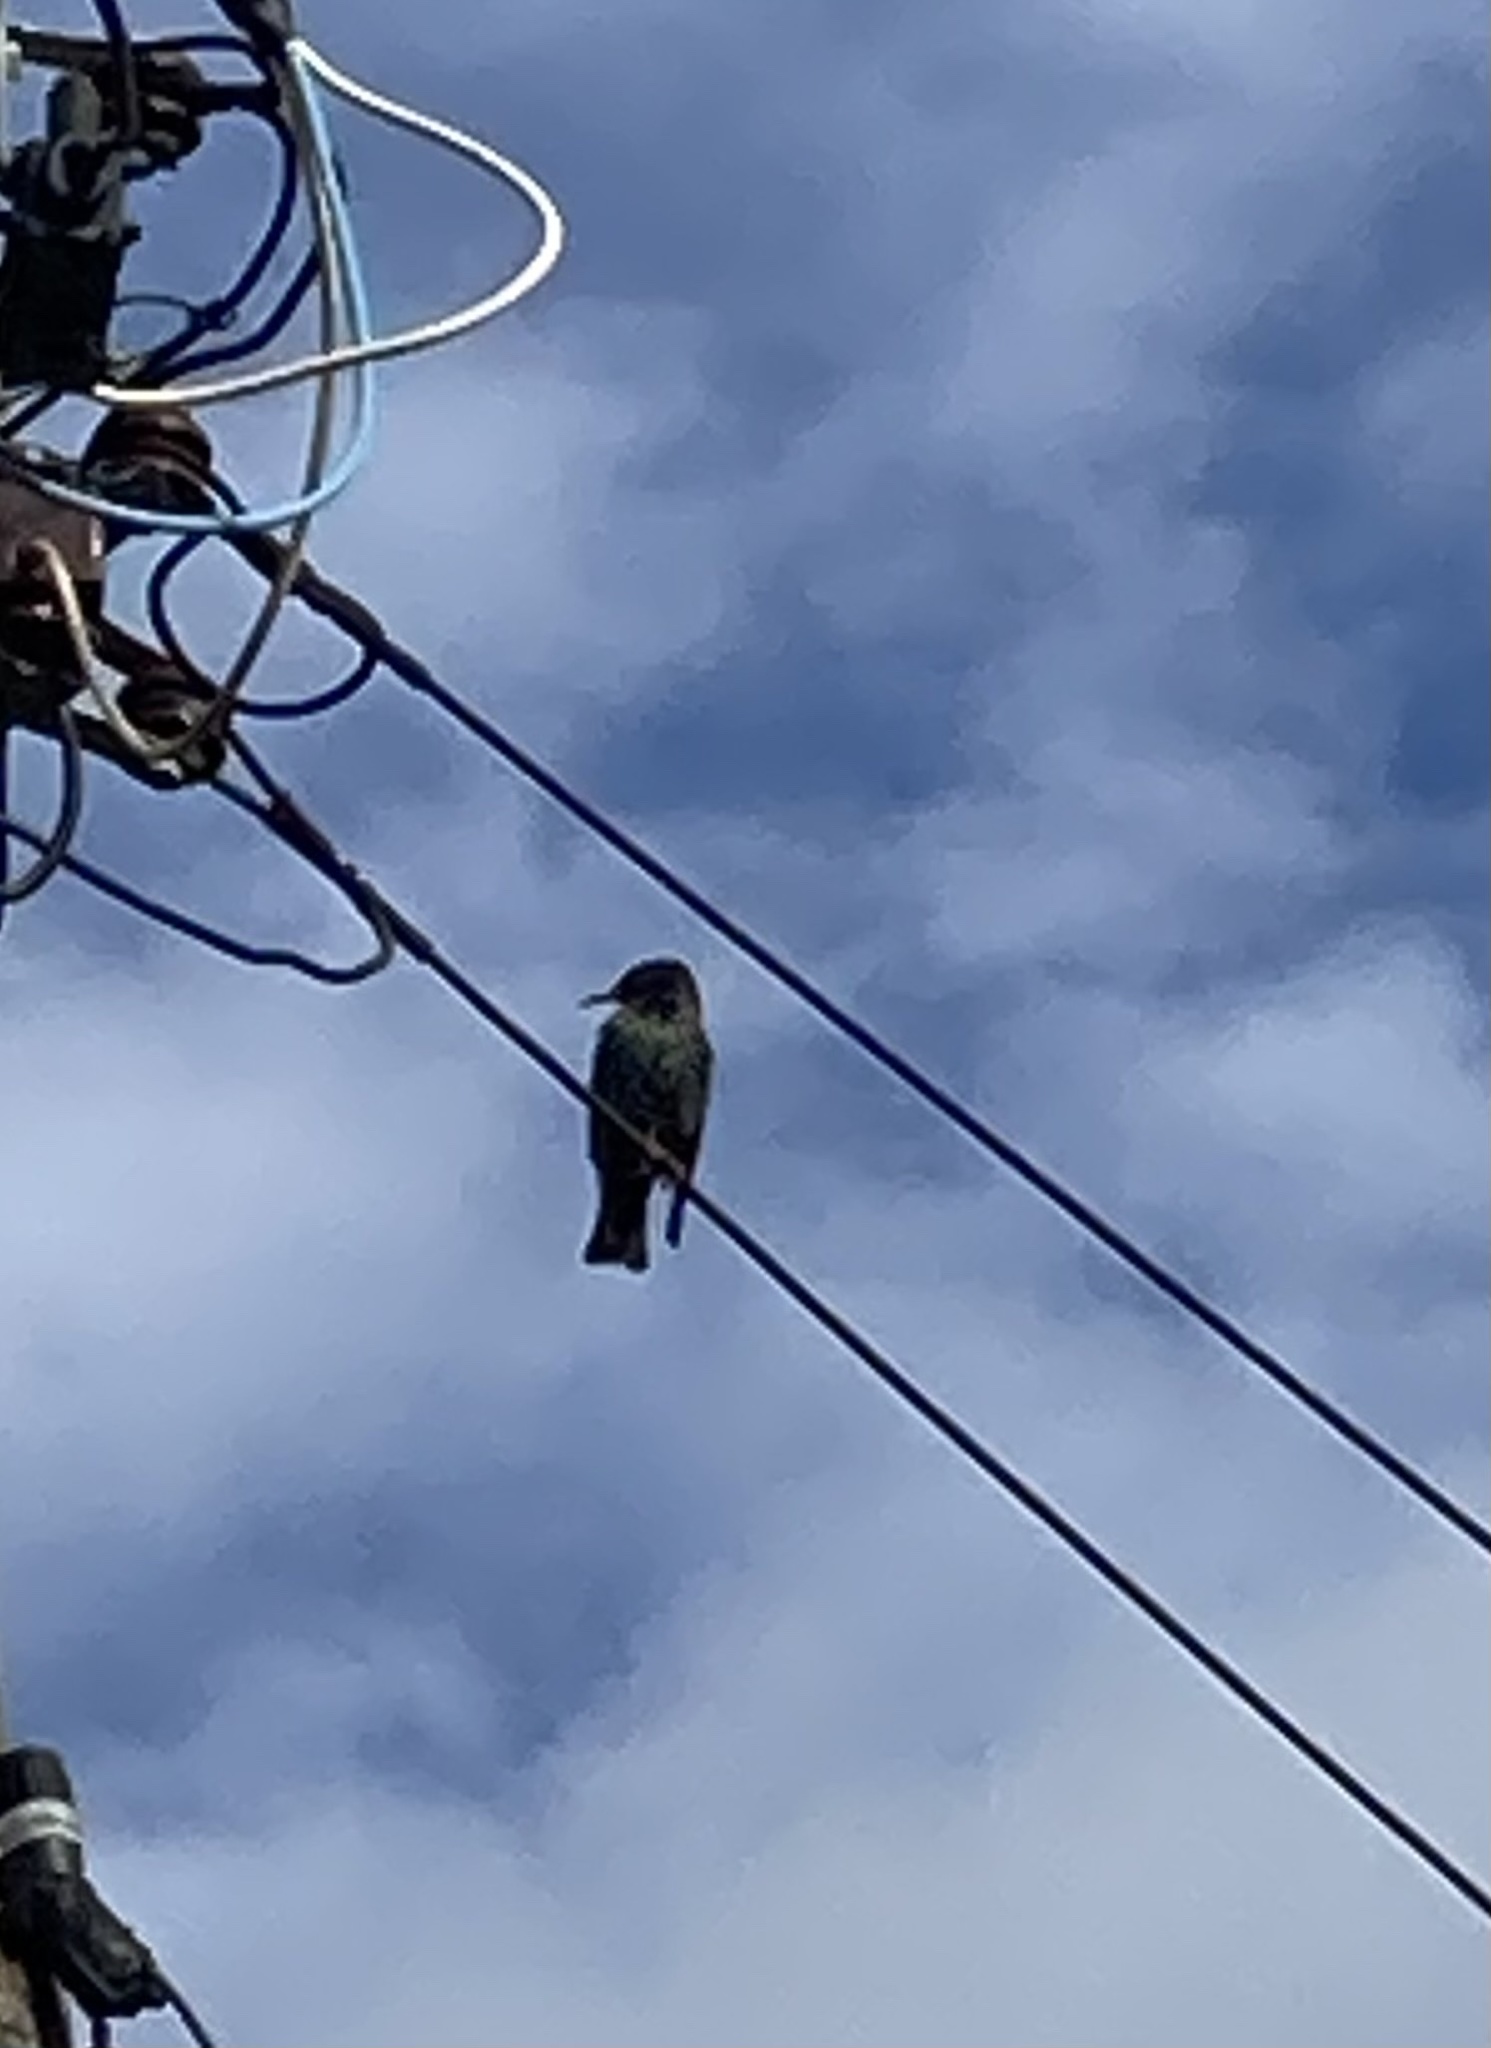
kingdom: Animalia
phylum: Chordata
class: Aves
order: Passeriformes
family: Sturnidae
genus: Sturnus
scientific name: Sturnus vulgaris
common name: Common starling
